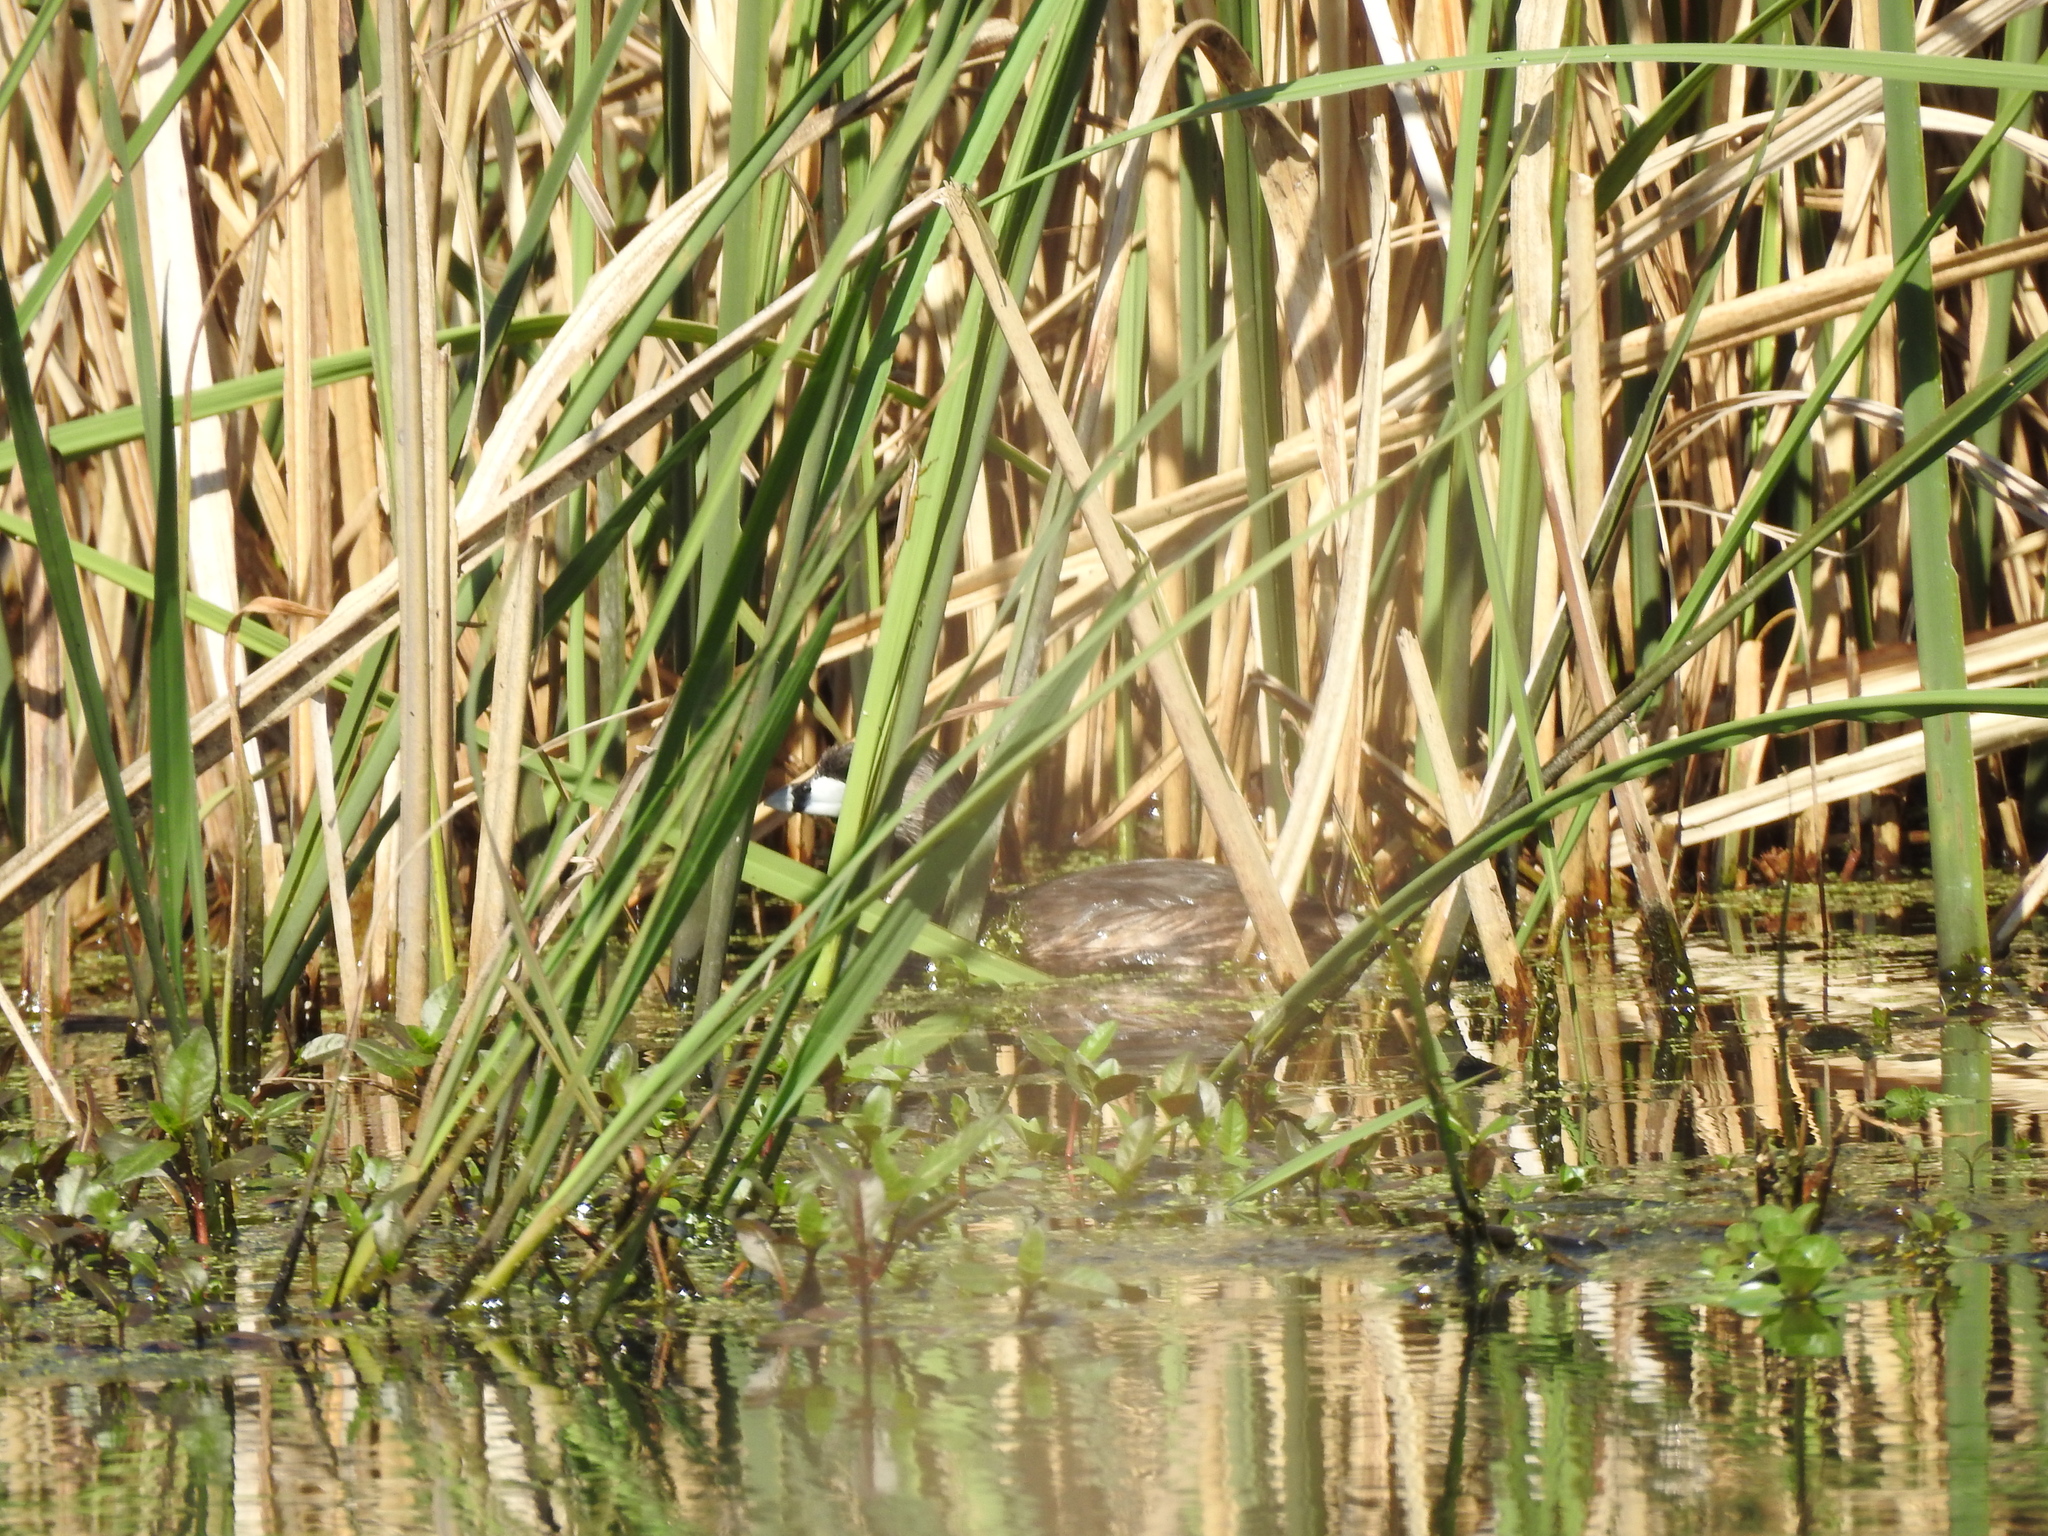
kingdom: Animalia
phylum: Chordata
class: Aves
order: Podicipediformes
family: Podicipedidae
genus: Podilymbus
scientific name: Podilymbus podiceps
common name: Pied-billed grebe
